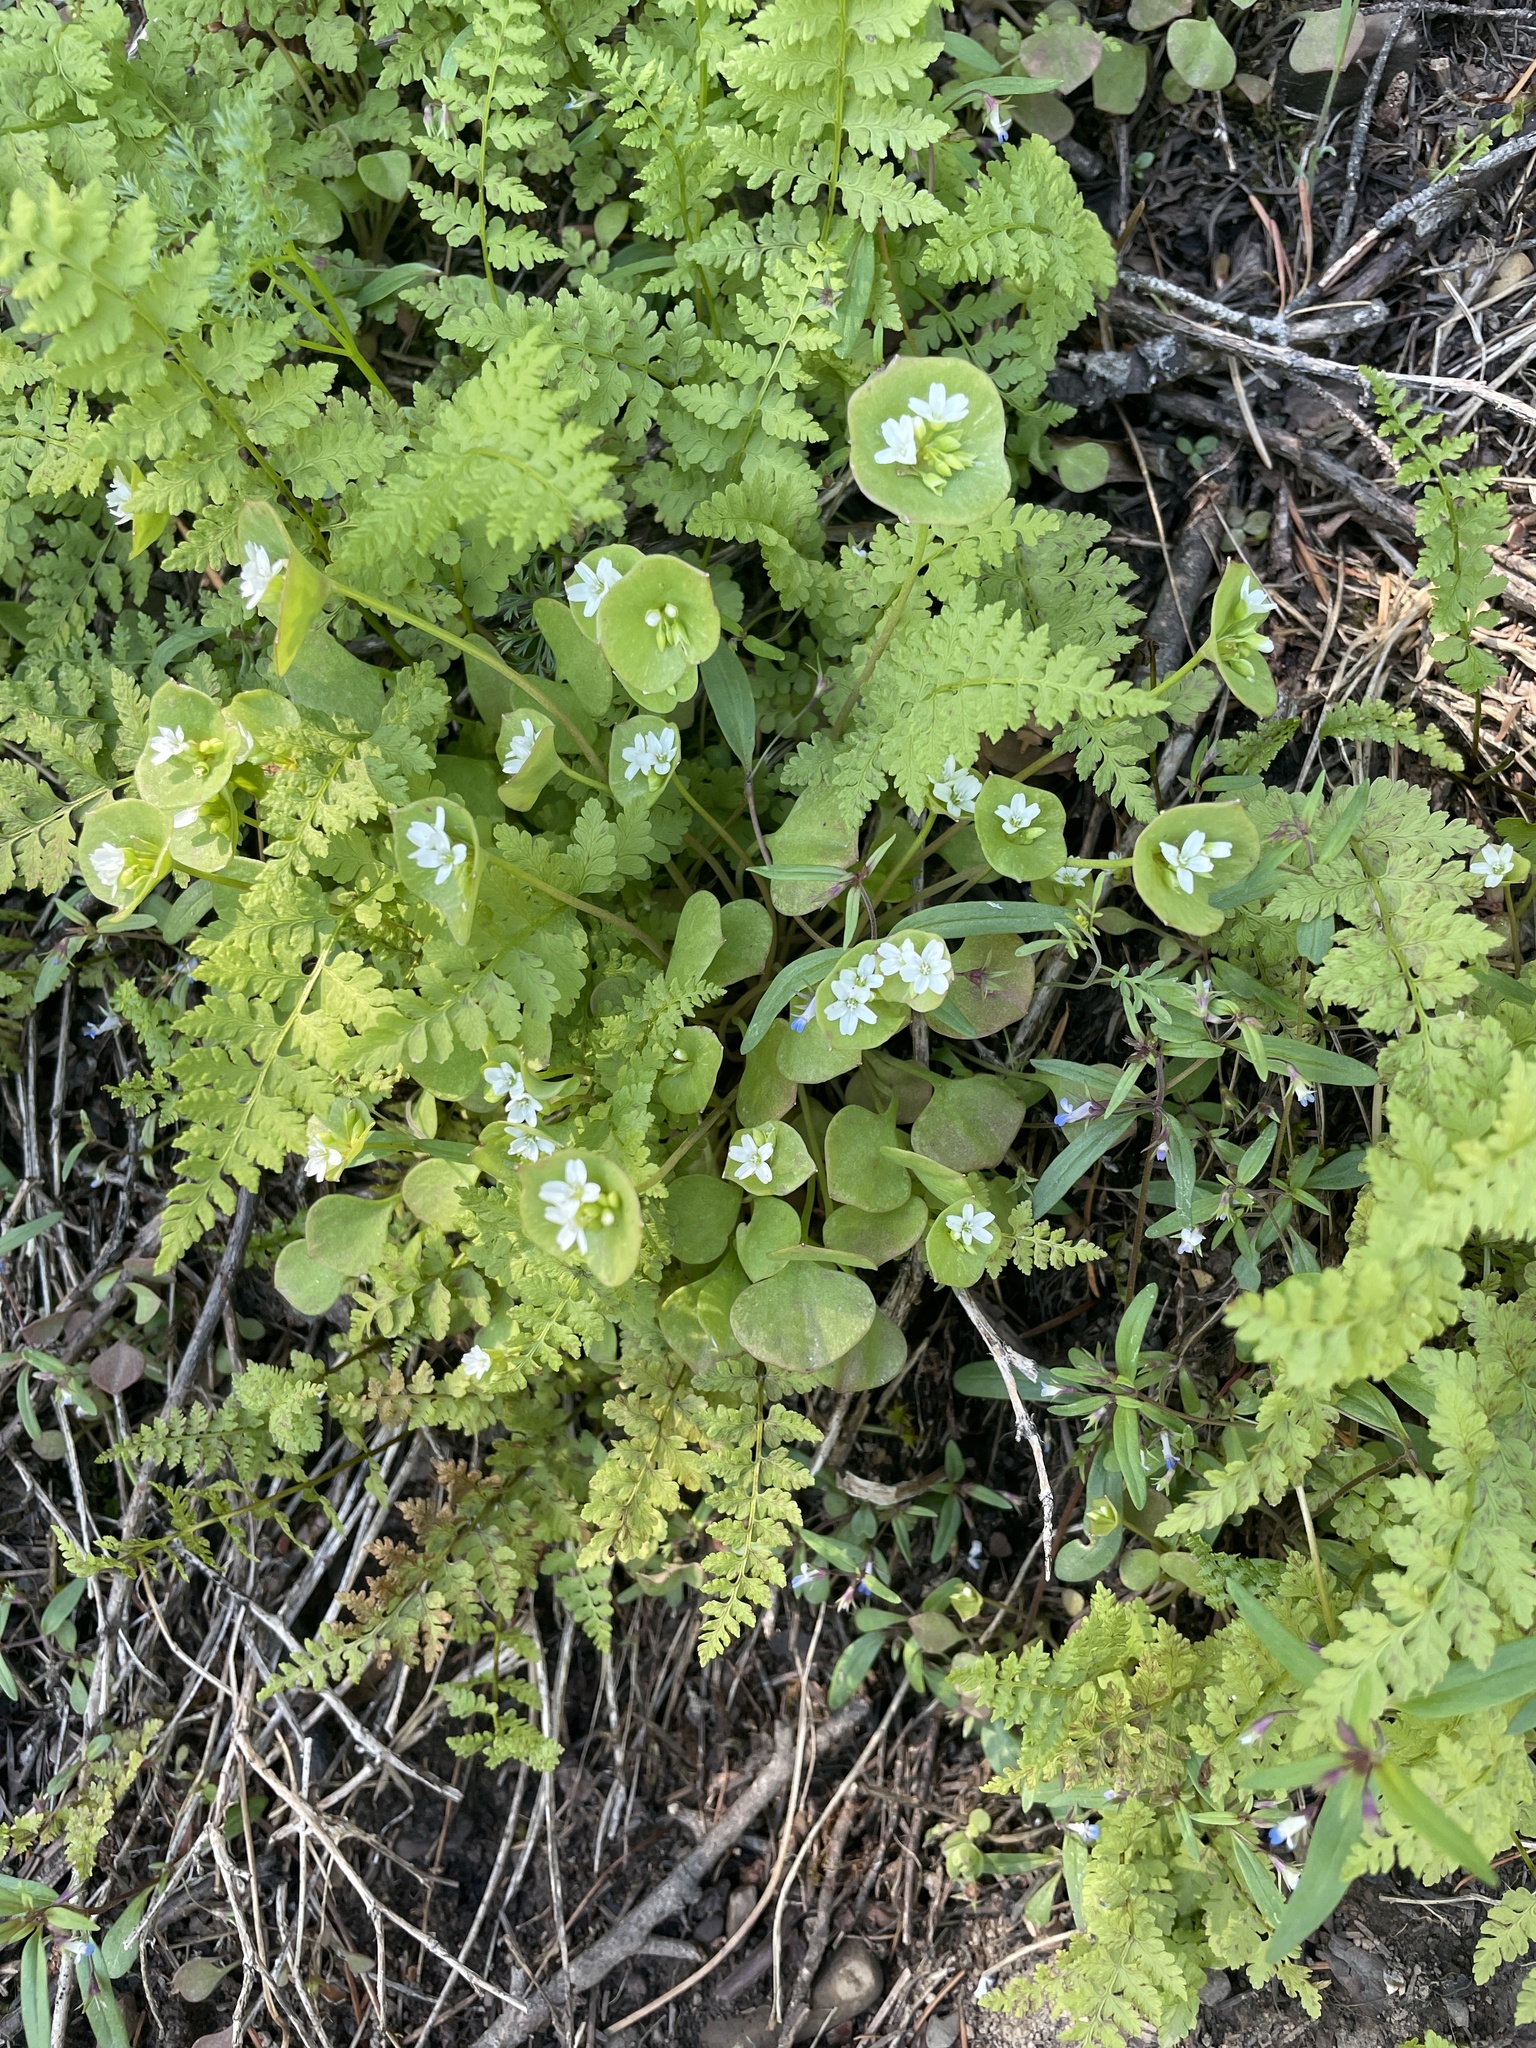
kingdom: Plantae
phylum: Tracheophyta
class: Magnoliopsida
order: Caryophyllales
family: Montiaceae
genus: Claytonia
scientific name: Claytonia perfoliata
